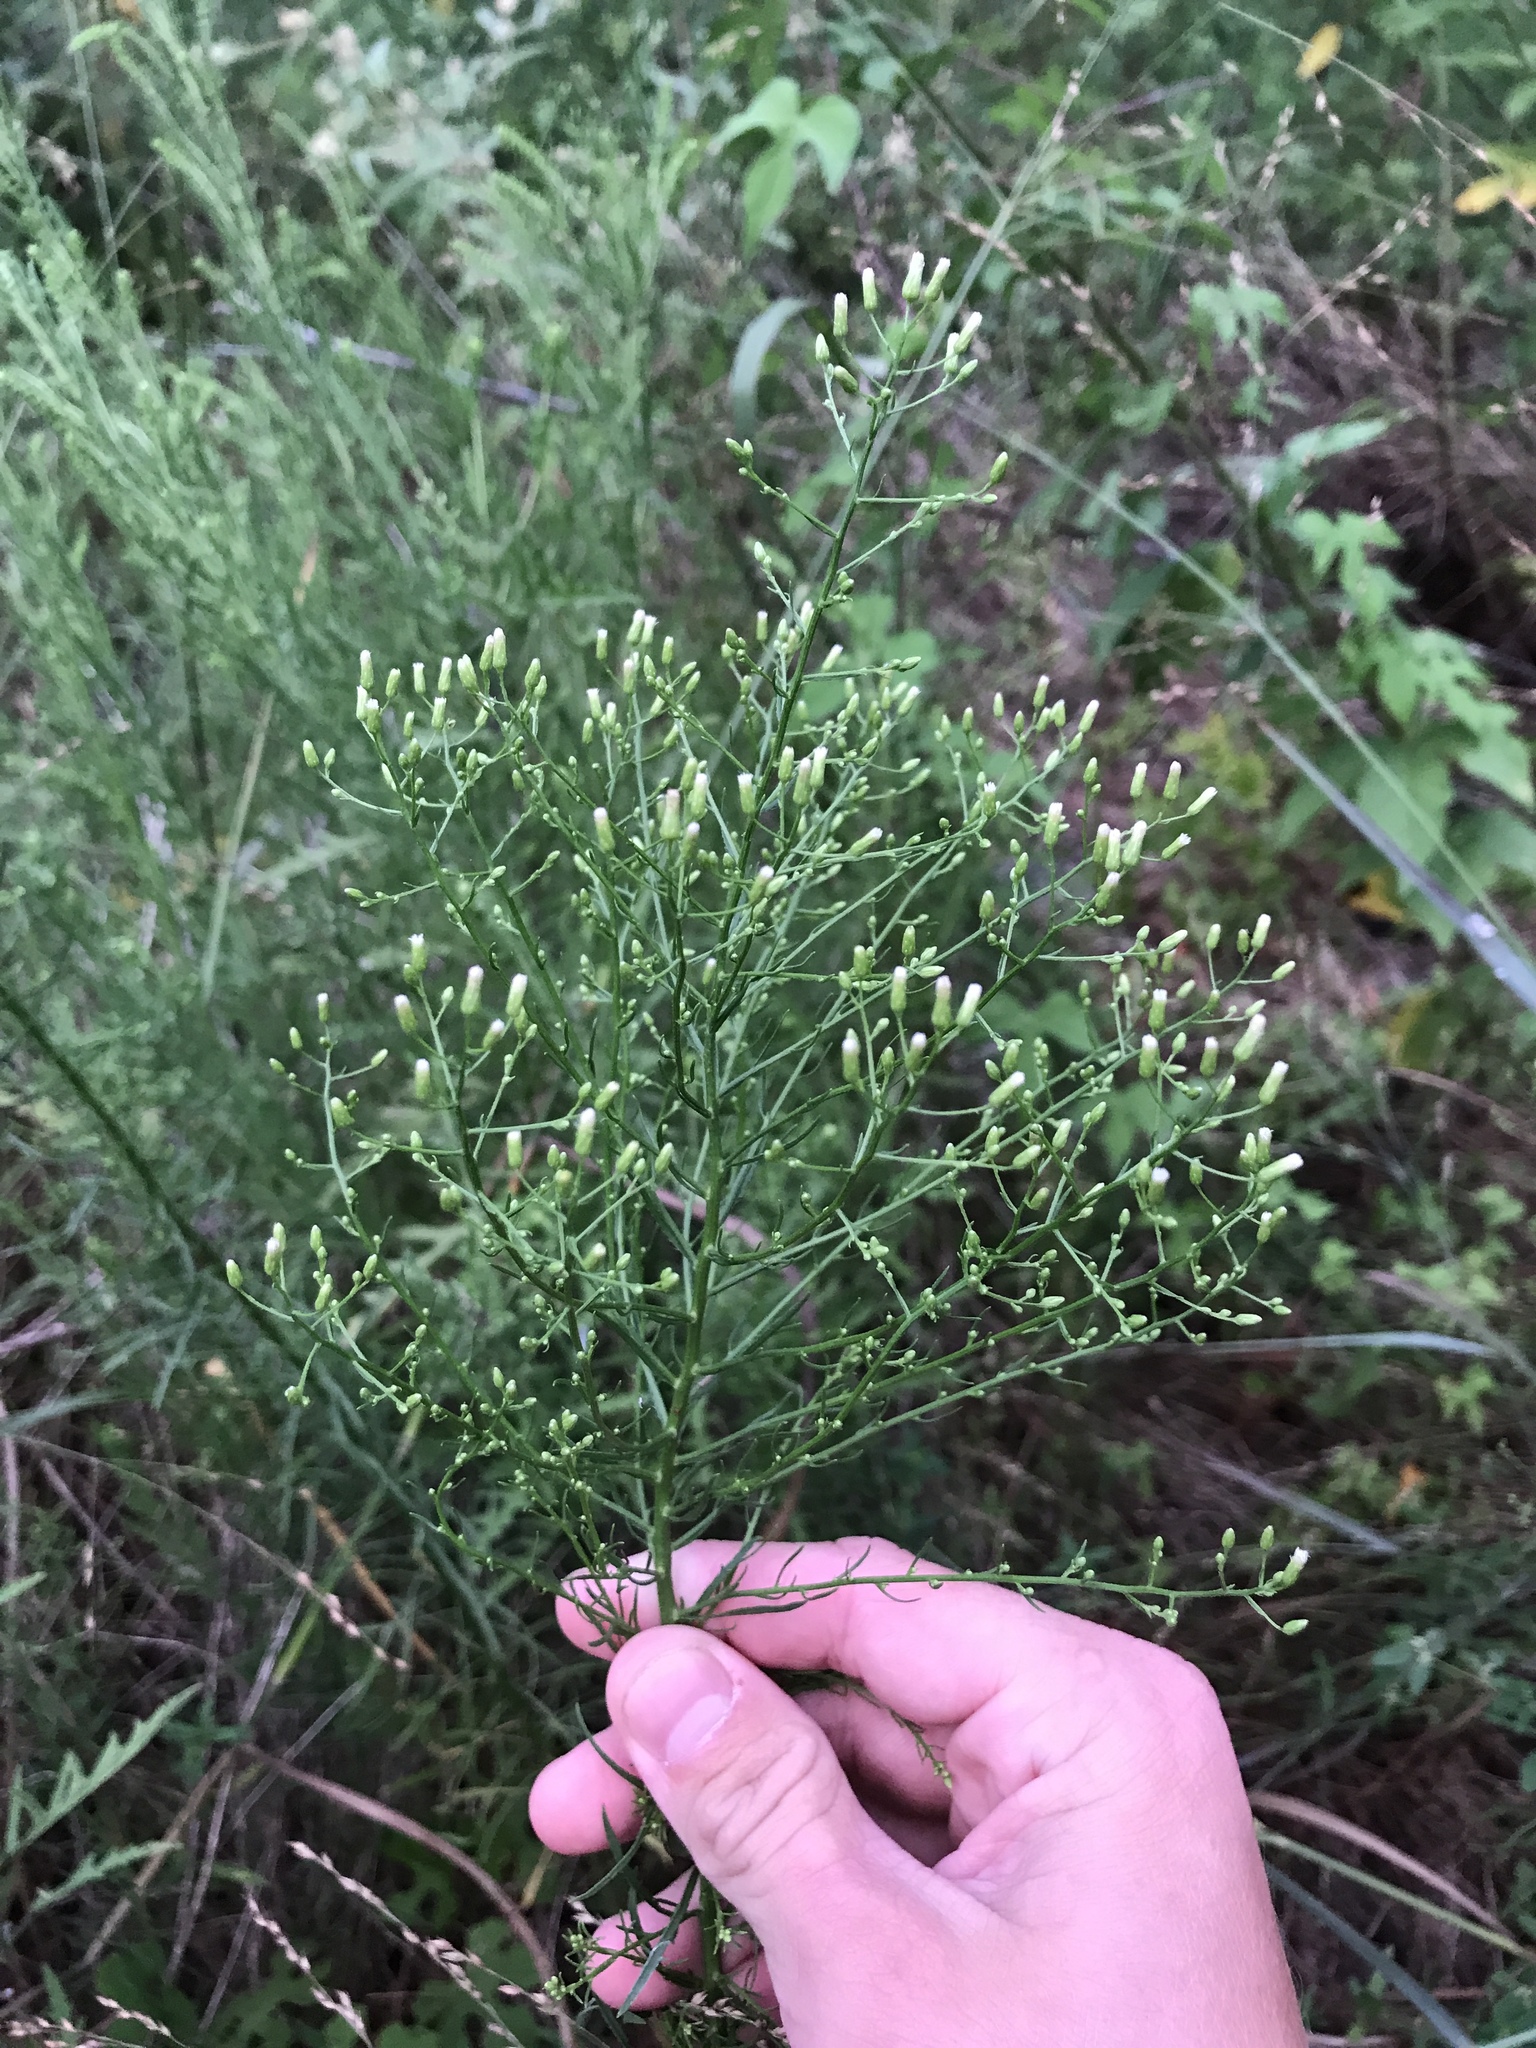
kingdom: Plantae
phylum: Tracheophyta
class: Magnoliopsida
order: Asterales
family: Asteraceae
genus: Erigeron
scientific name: Erigeron canadensis
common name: Canadian fleabane
